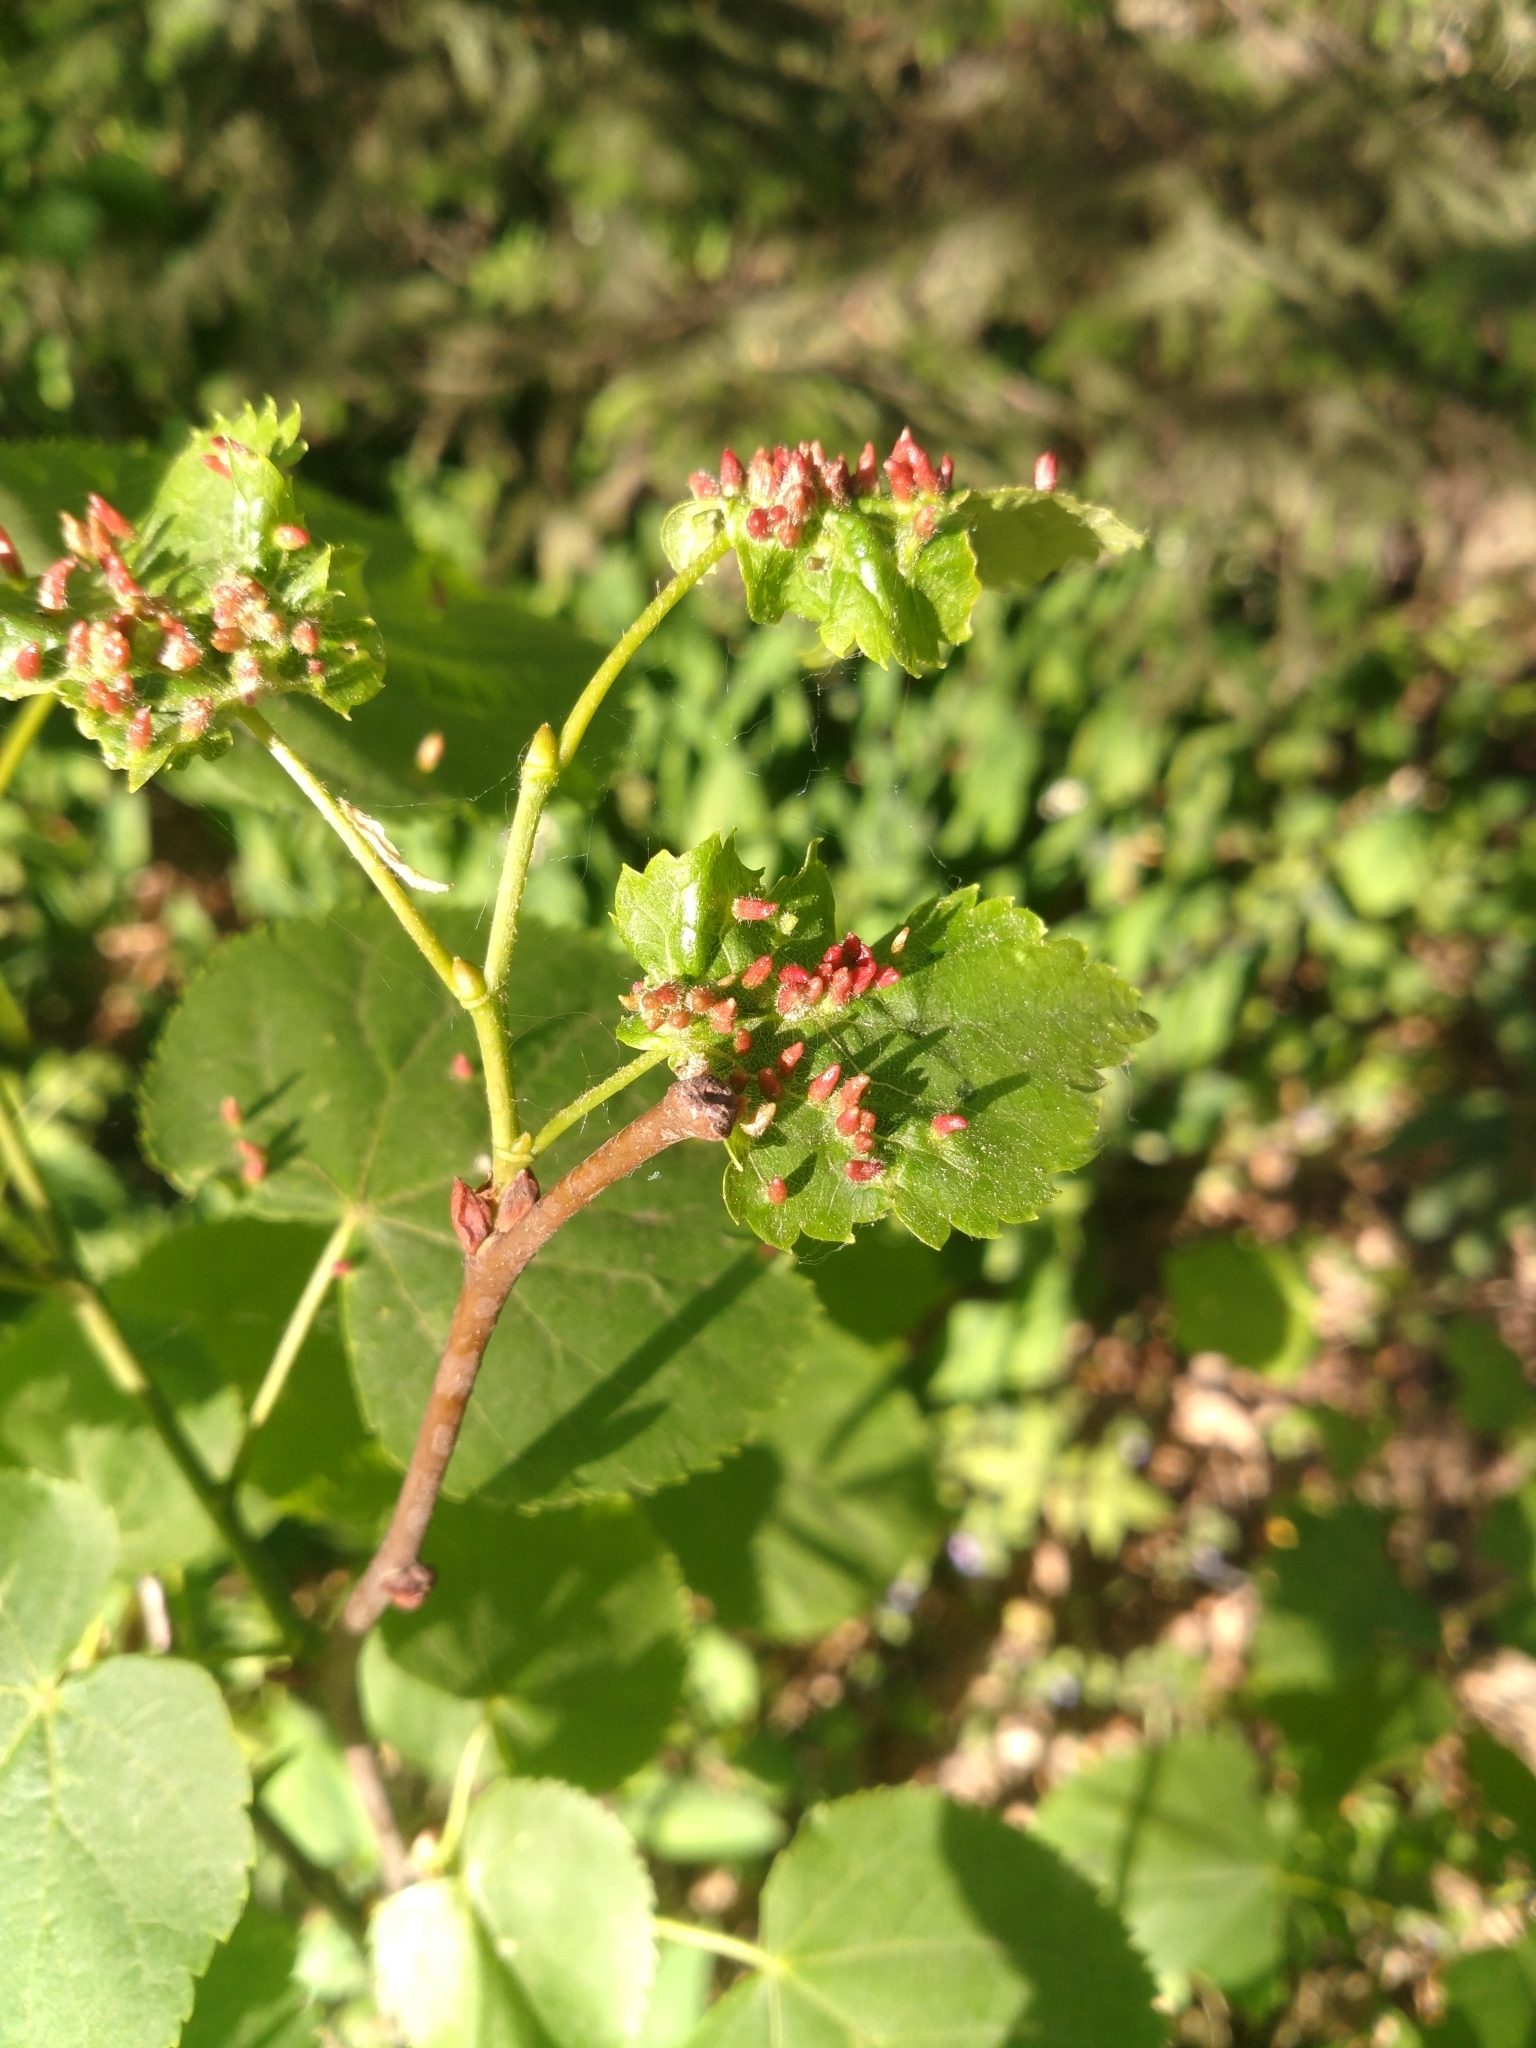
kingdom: Animalia
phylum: Arthropoda
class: Arachnida
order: Trombidiformes
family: Eriophyidae
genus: Eriophyes
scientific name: Eriophyes tiliae
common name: Red nail gall mite
